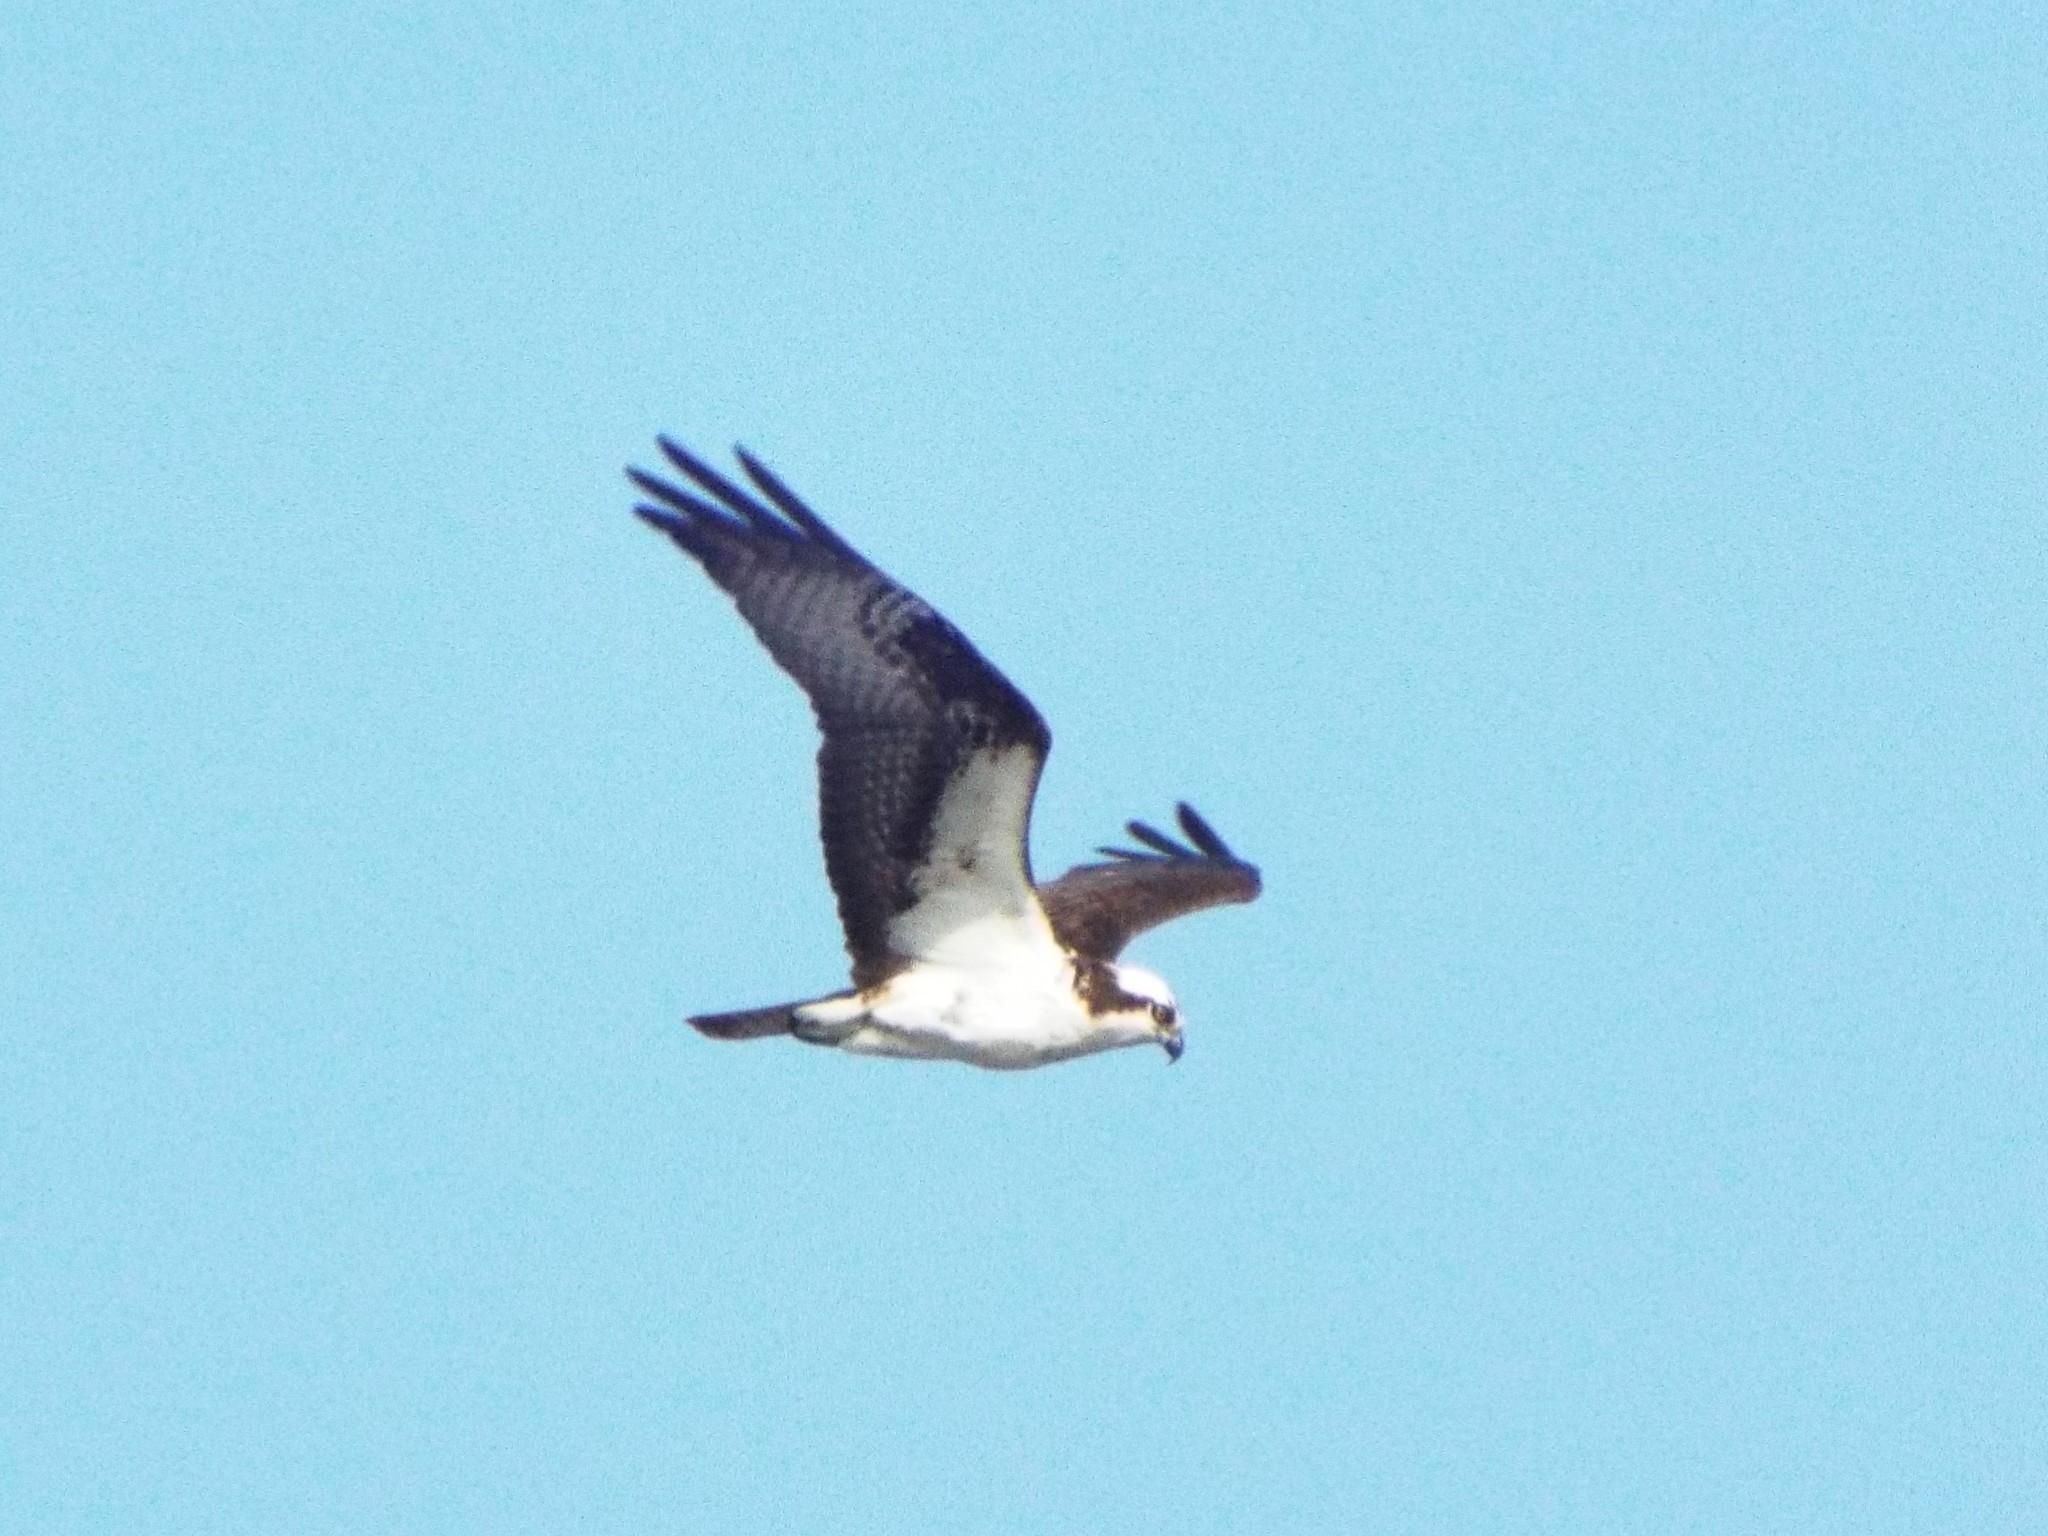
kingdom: Animalia
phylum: Chordata
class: Aves
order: Accipitriformes
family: Pandionidae
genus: Pandion
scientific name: Pandion haliaetus
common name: Osprey
